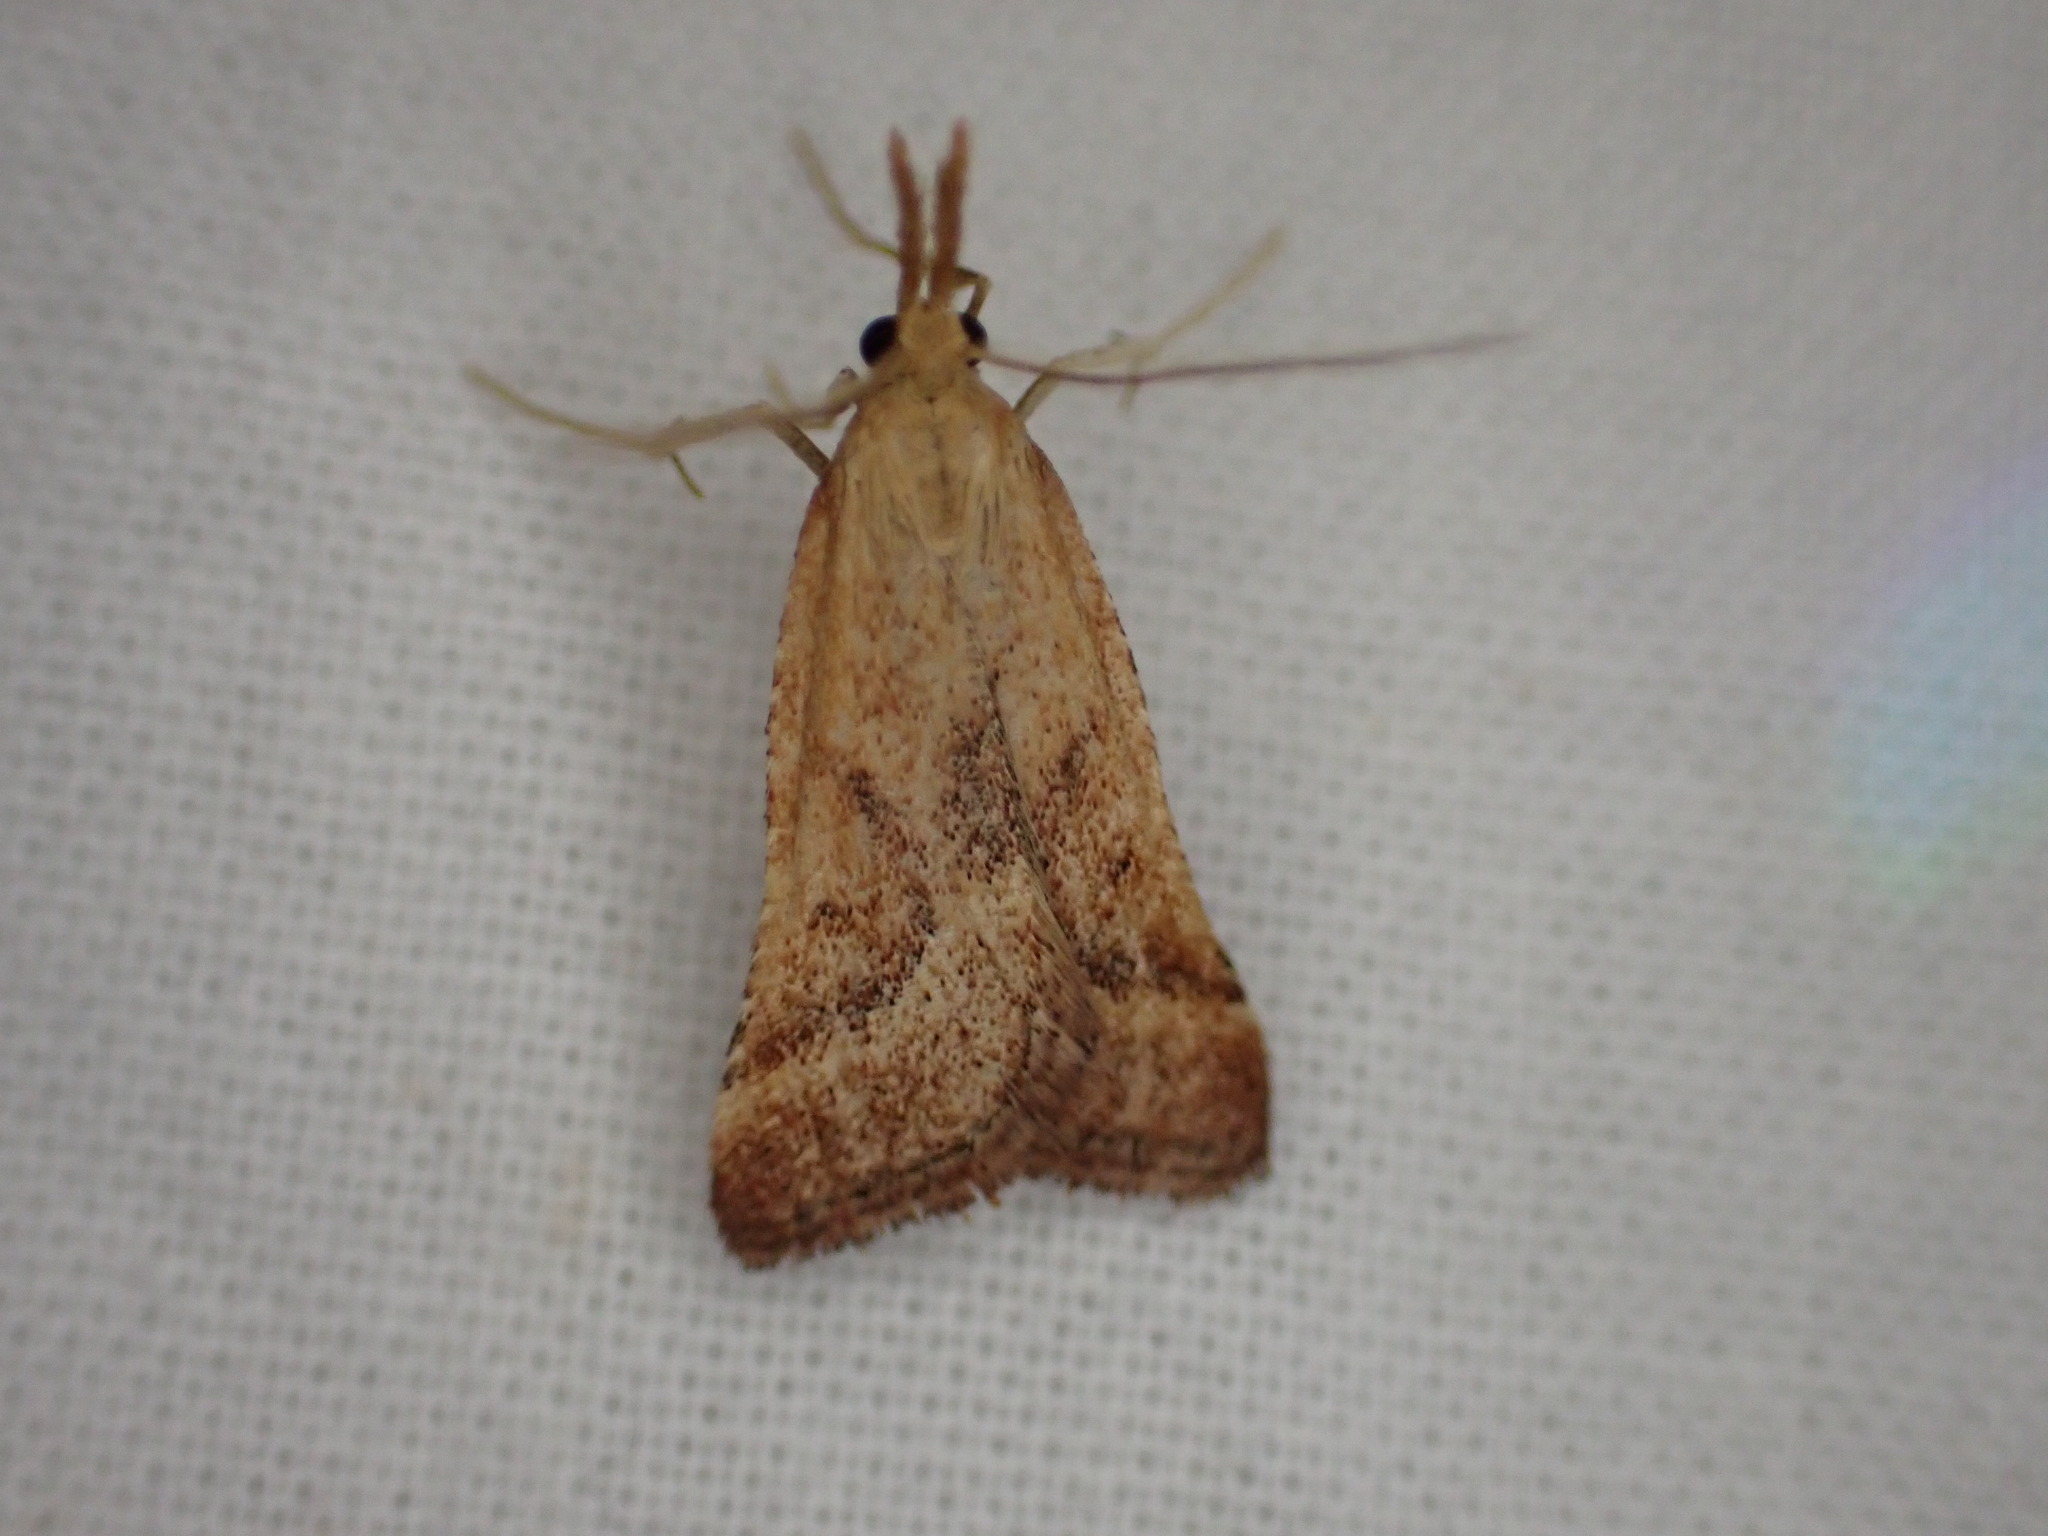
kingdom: Animalia
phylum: Arthropoda
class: Insecta
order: Lepidoptera
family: Pyralidae
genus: Synaphe
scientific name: Synaphe punctalis
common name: Long-legged tabby
